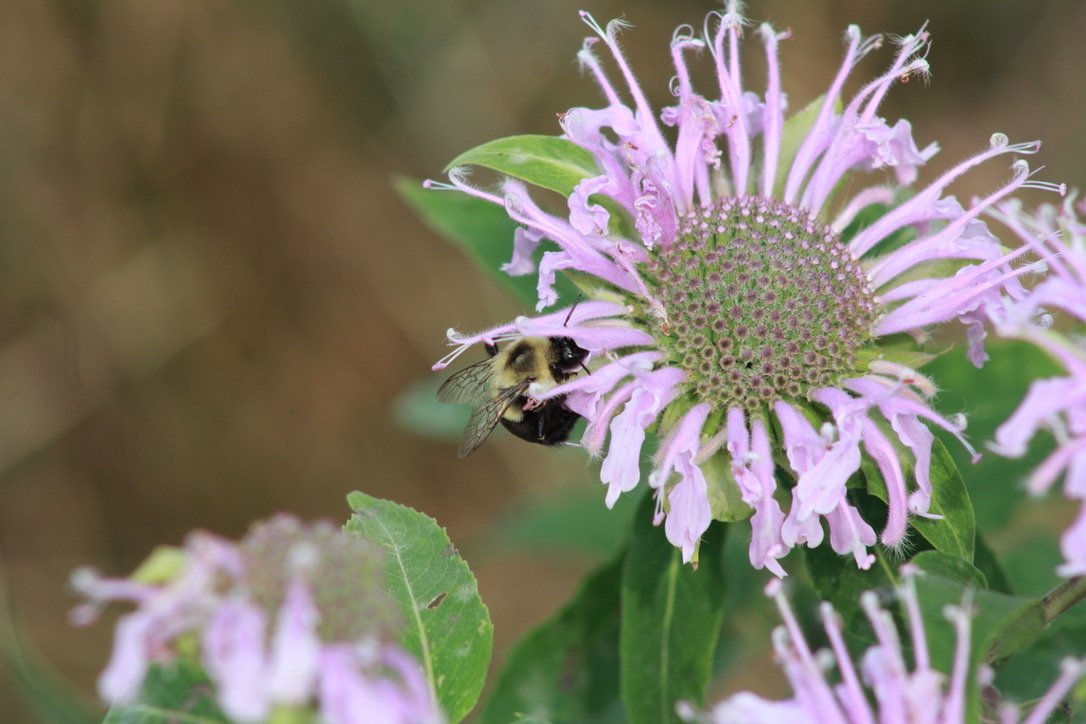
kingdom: Animalia
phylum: Arthropoda
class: Insecta
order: Hymenoptera
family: Apidae
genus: Bombus
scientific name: Bombus impatiens
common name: Common eastern bumble bee
